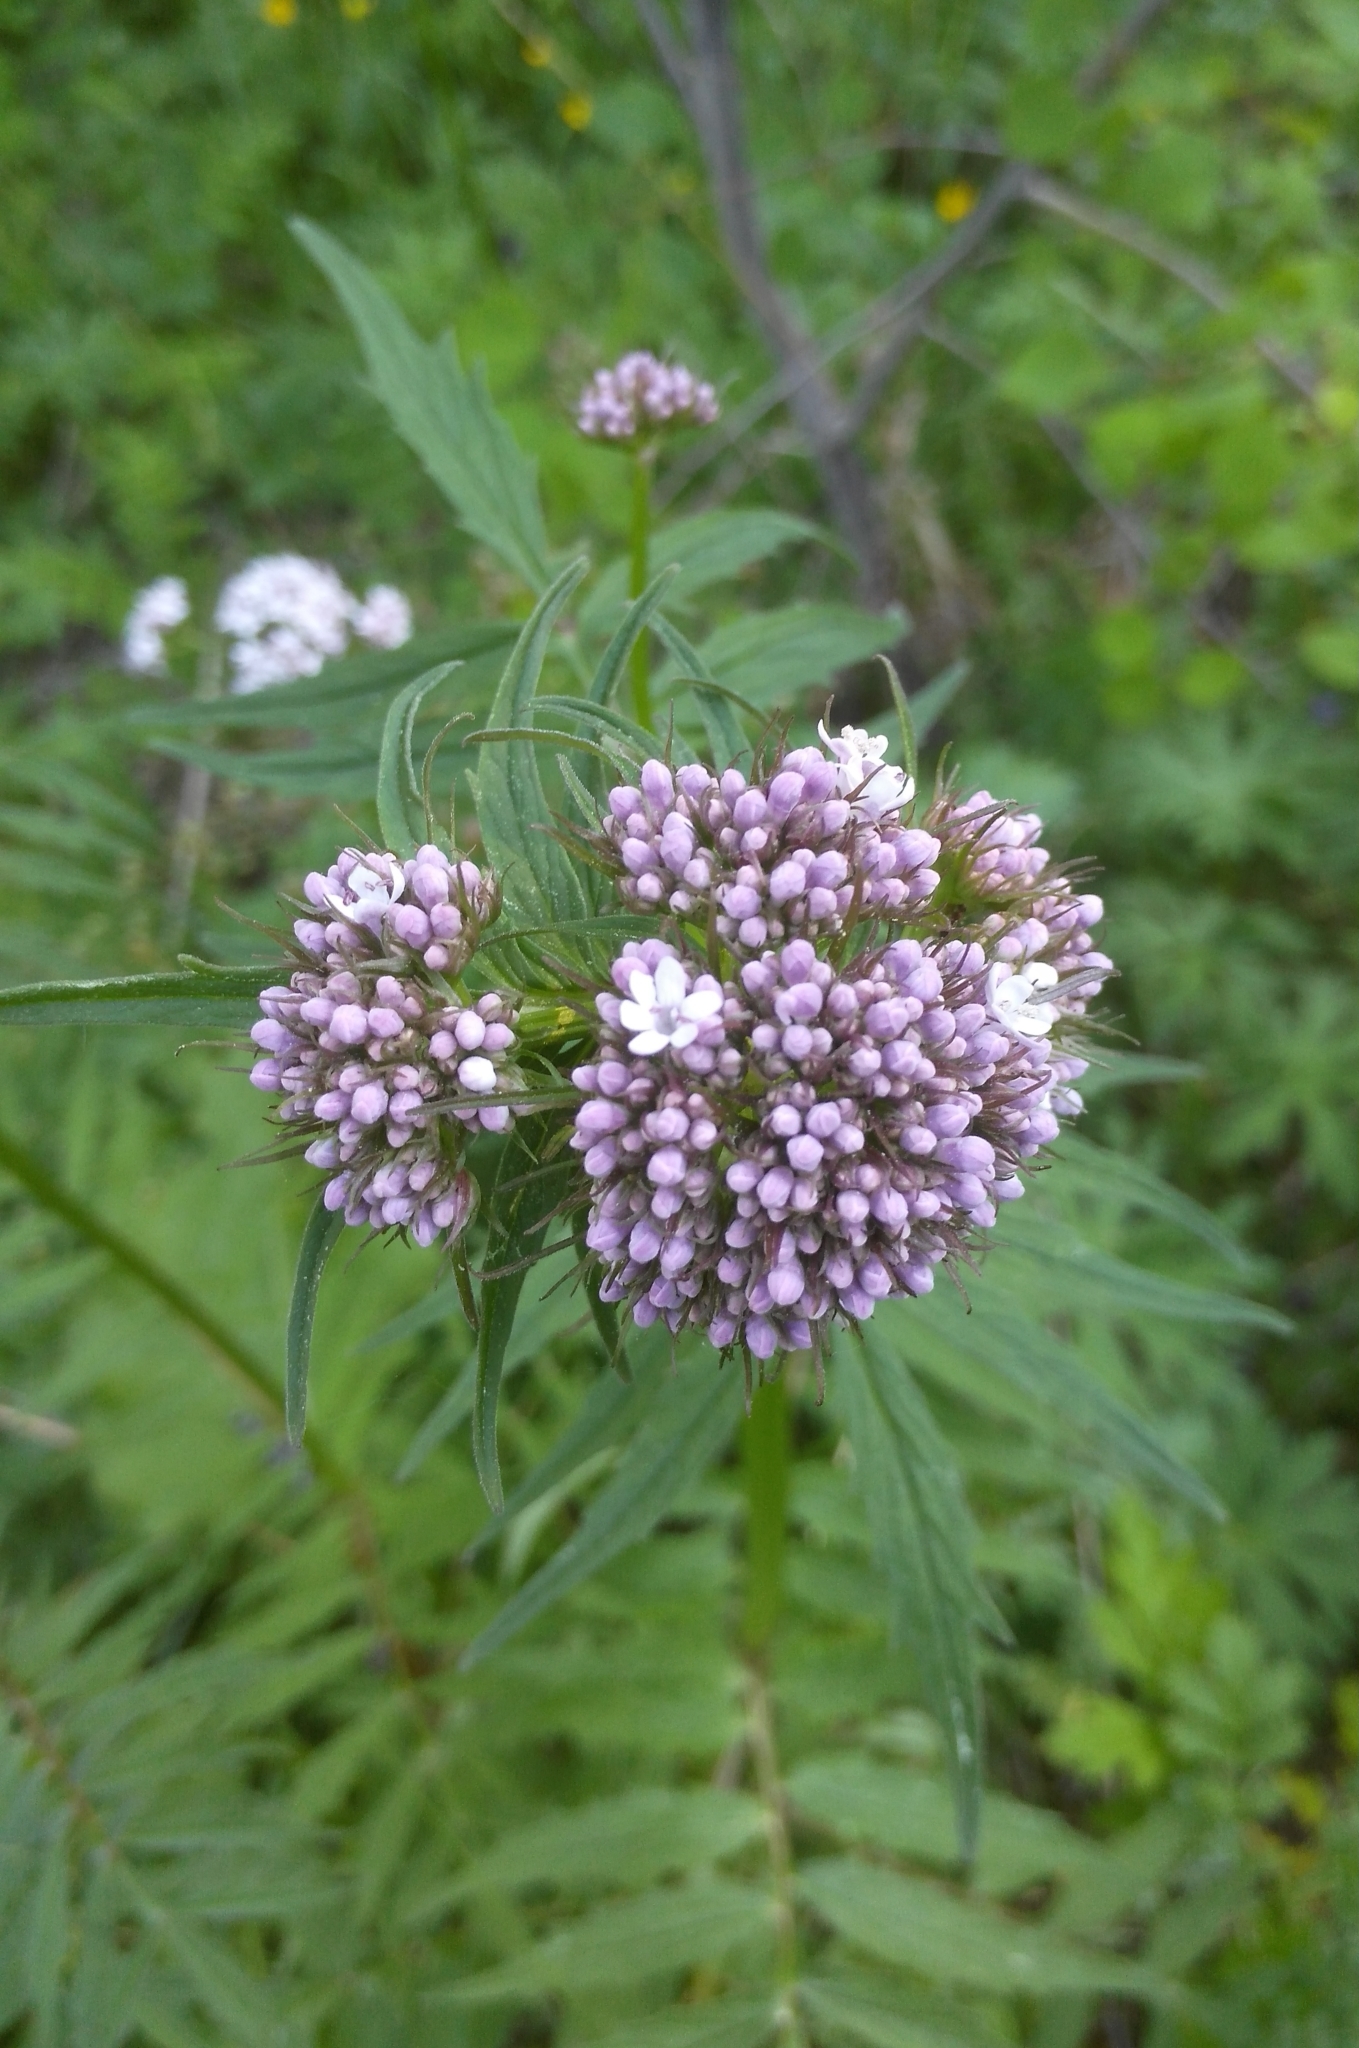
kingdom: Plantae
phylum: Tracheophyta
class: Magnoliopsida
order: Dipsacales
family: Caprifoliaceae
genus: Valeriana
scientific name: Valeriana alternifolia
